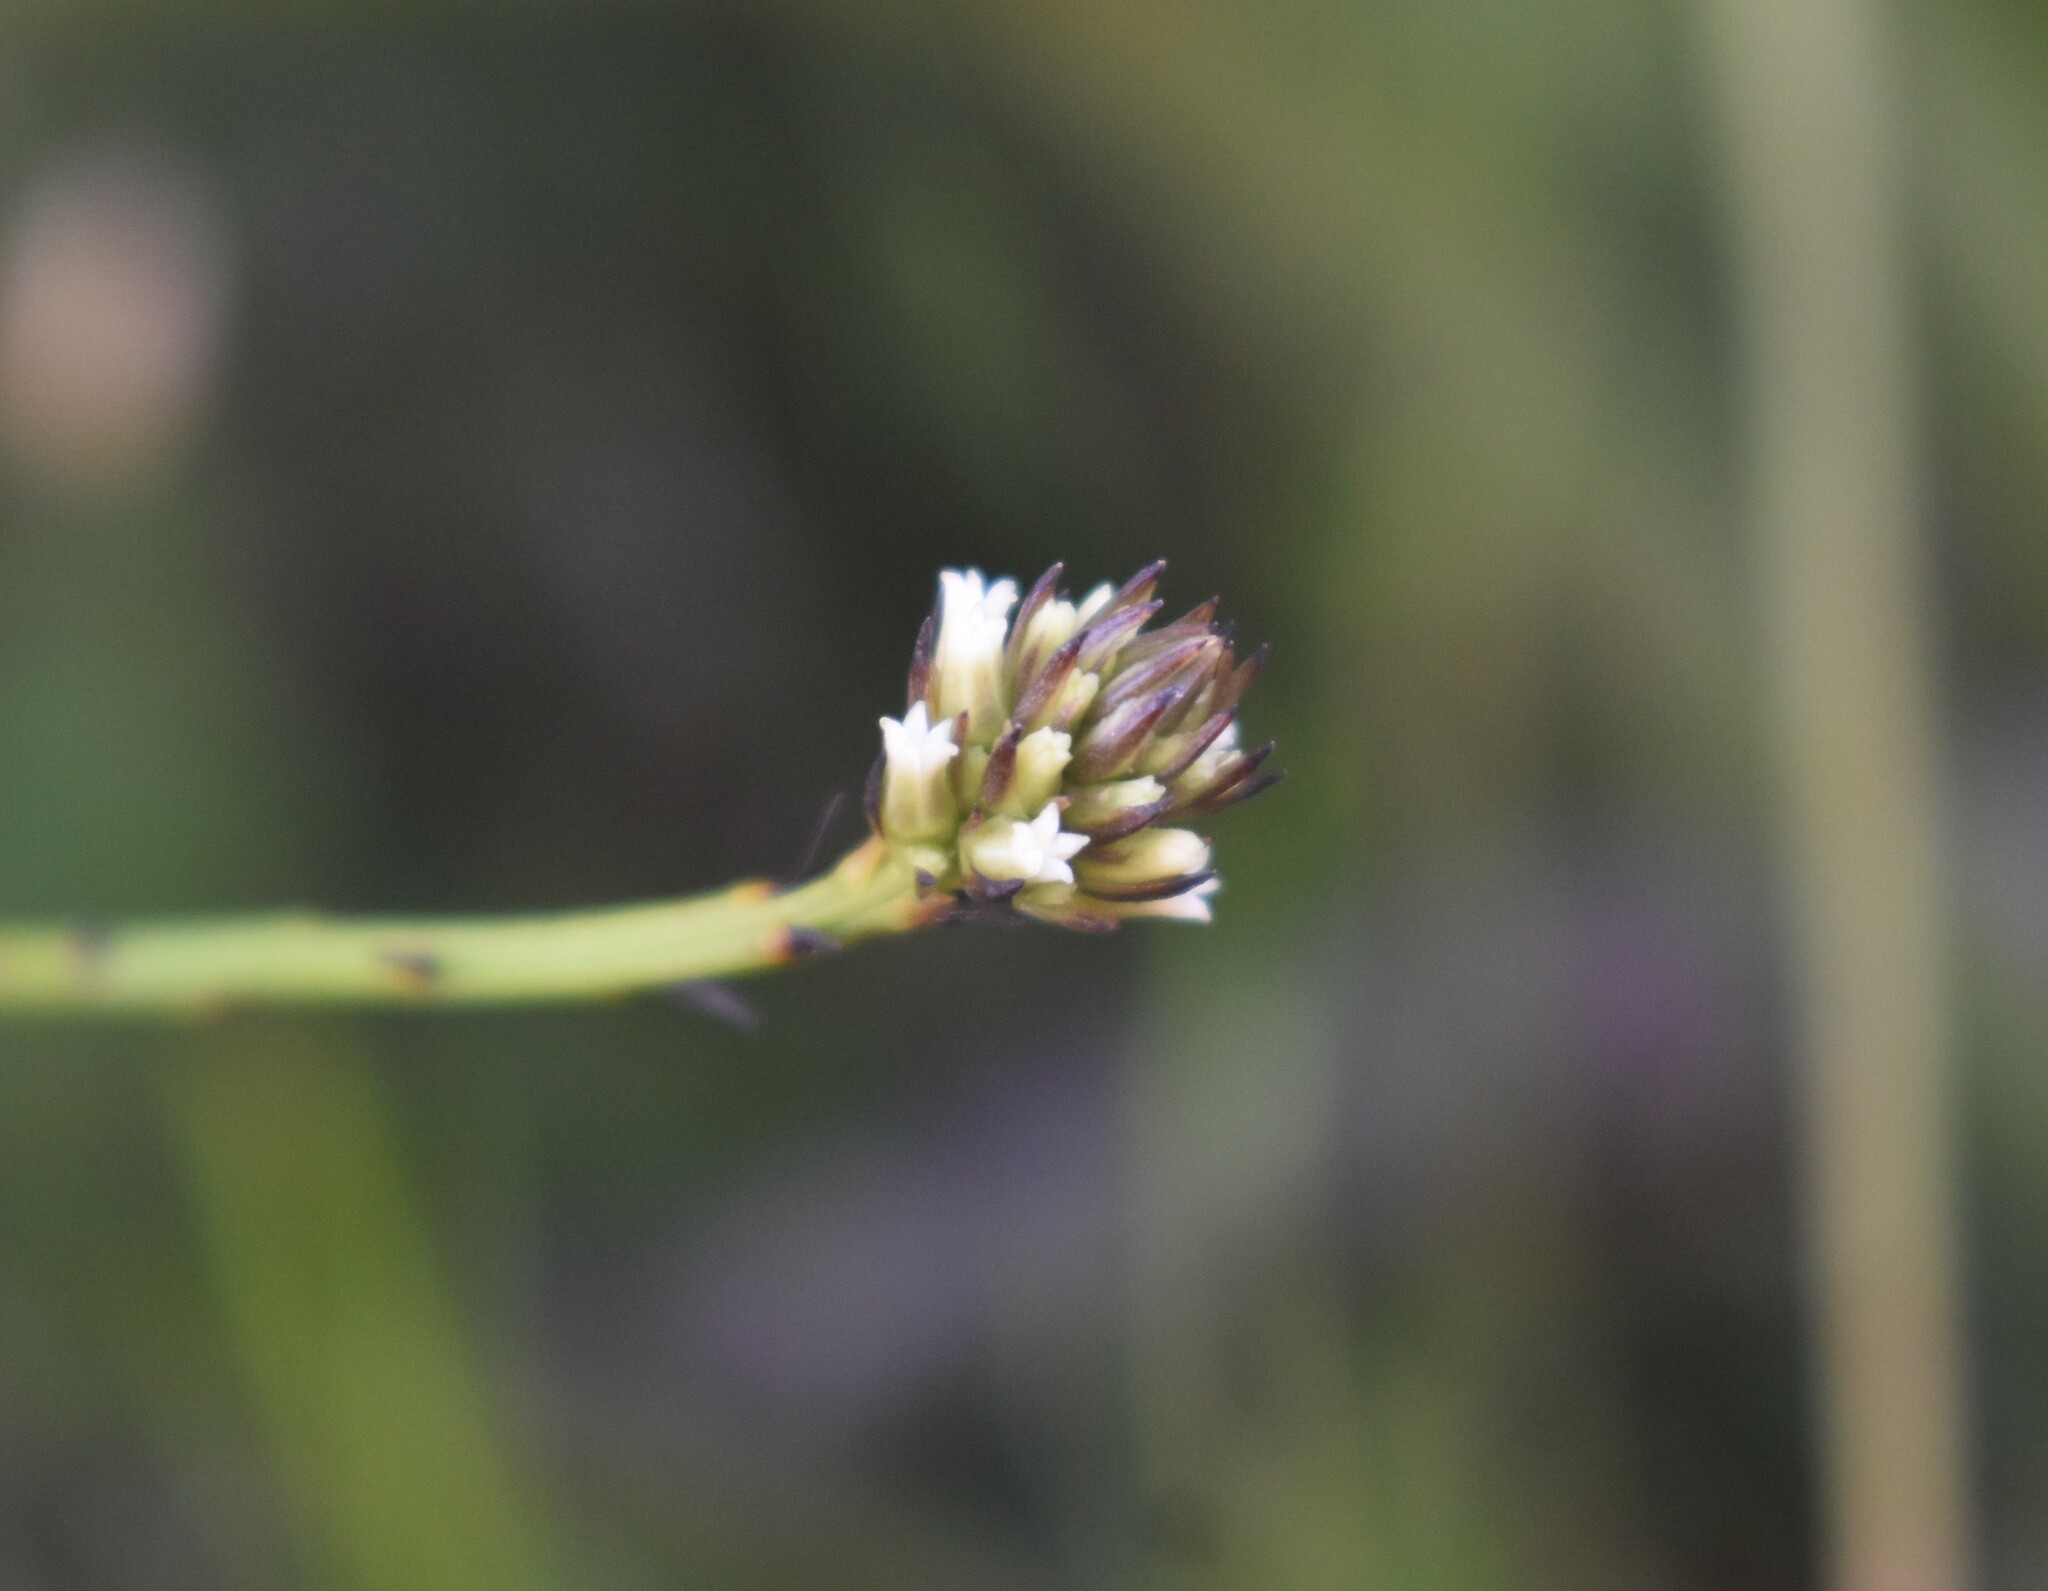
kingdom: Plantae
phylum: Tracheophyta
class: Magnoliopsida
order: Santalales
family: Thesiaceae
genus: Thesium
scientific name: Thesium aggregatum
